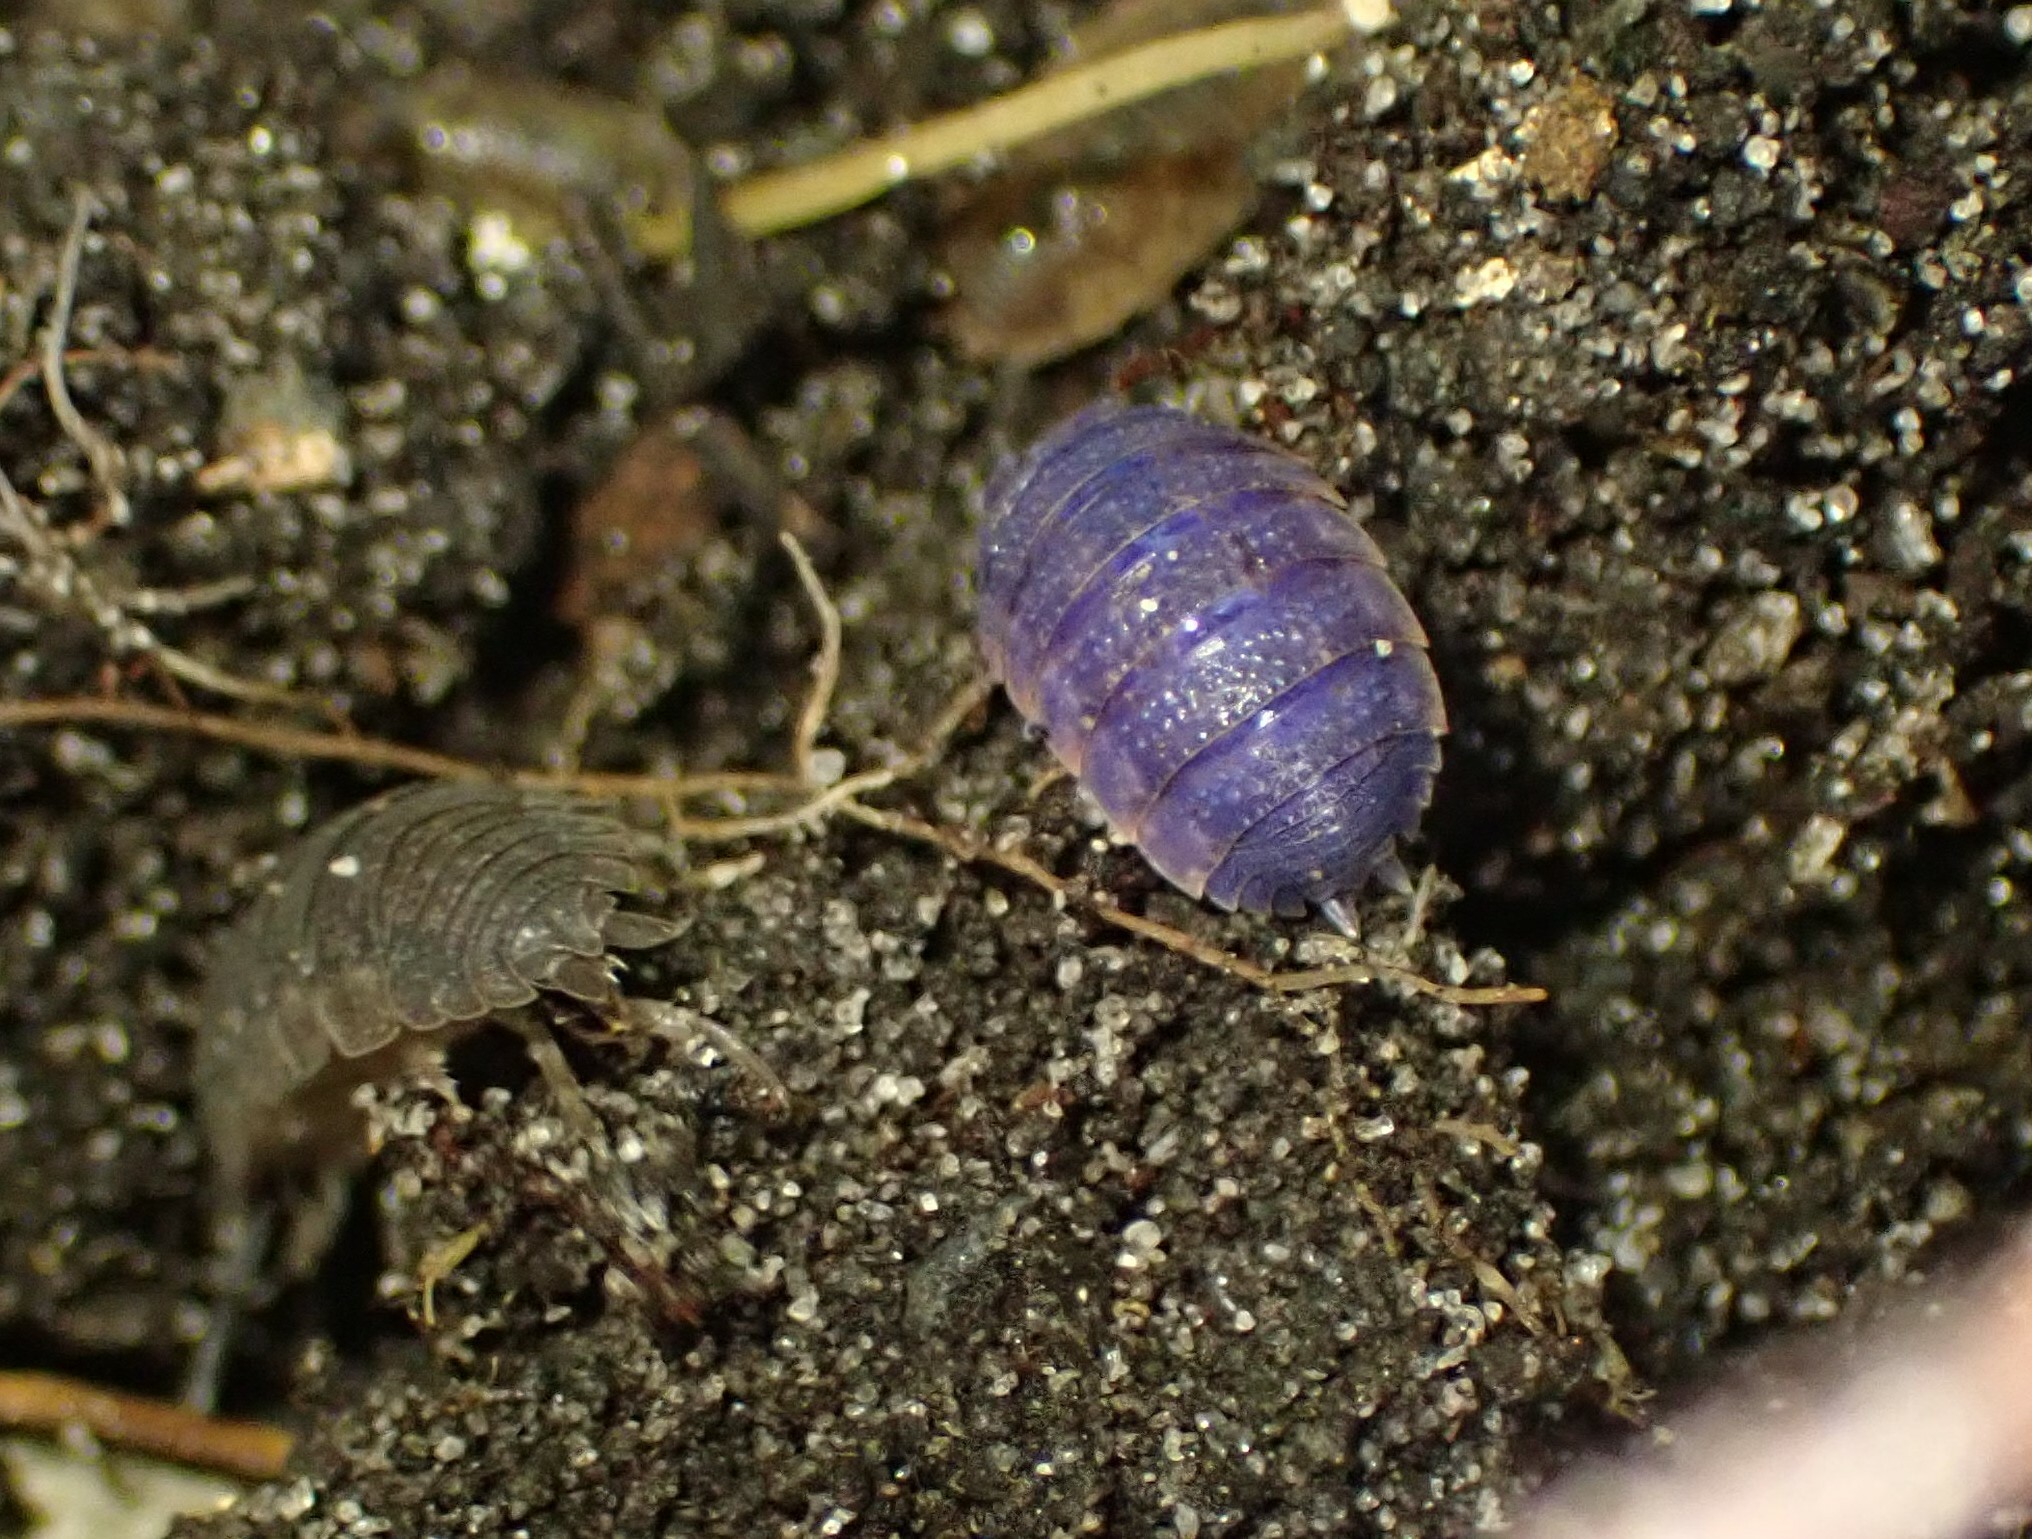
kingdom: Viruses
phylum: Nucleocytoviricota
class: Megaviricetes
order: Pimascovirales
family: Iridoviridae
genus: Iridovirus
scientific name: Iridovirus Invertebrate iridescent virus 31
